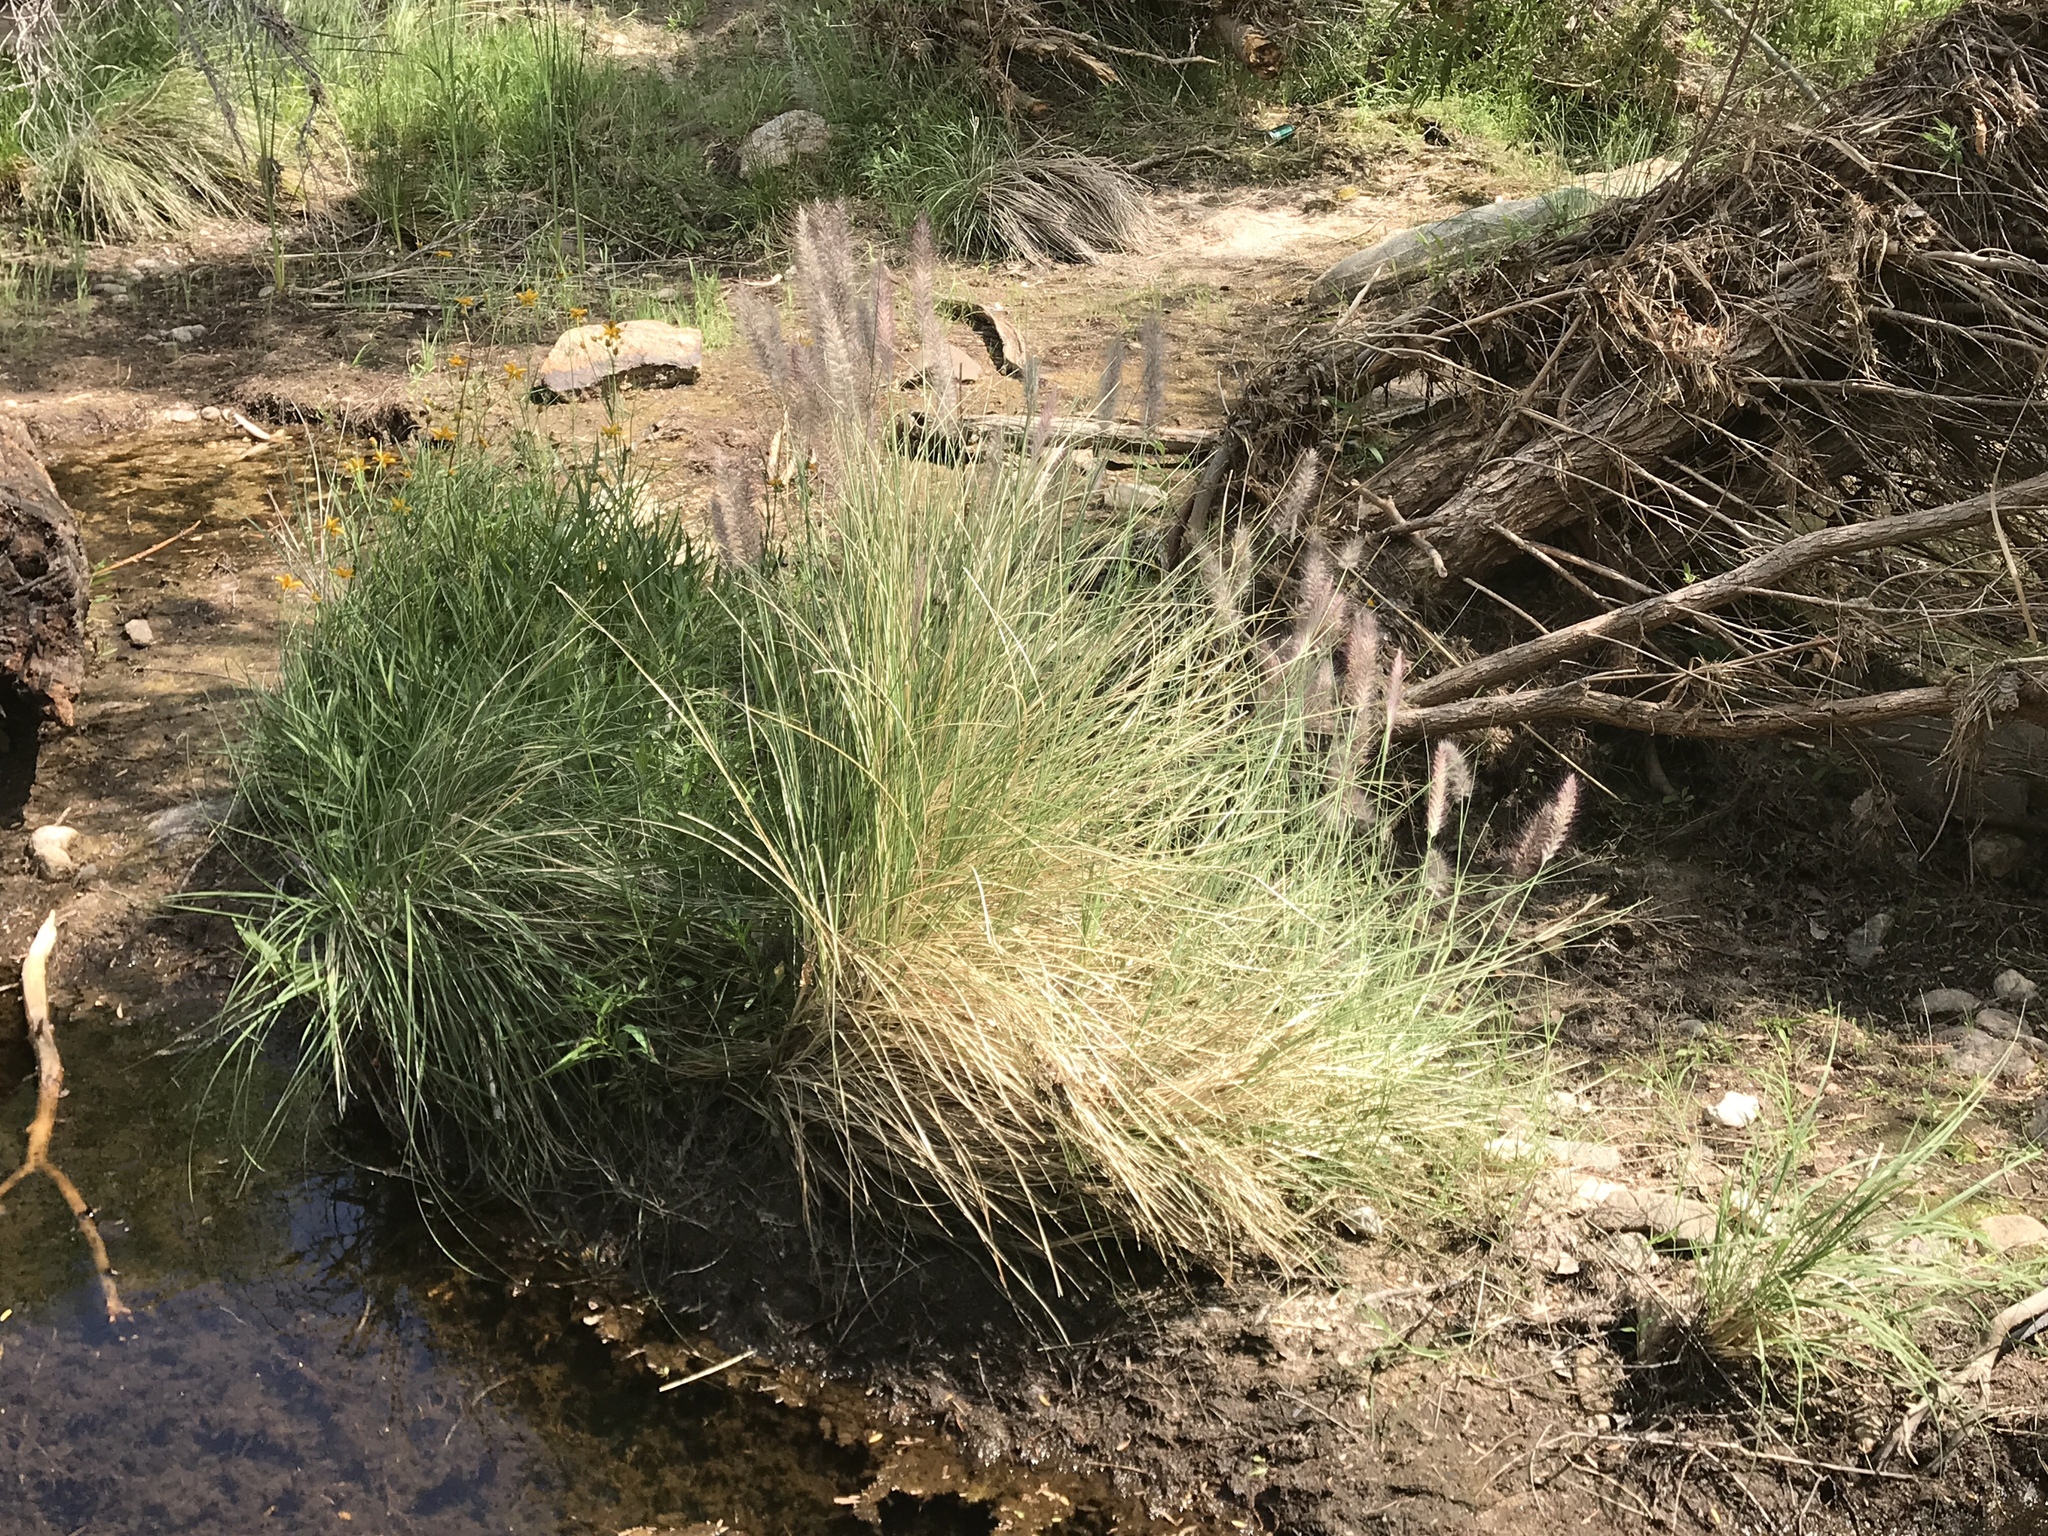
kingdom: Plantae
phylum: Tracheophyta
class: Liliopsida
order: Poales
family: Poaceae
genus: Cenchrus
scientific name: Cenchrus setaceus
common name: Crimson fountaingrass
